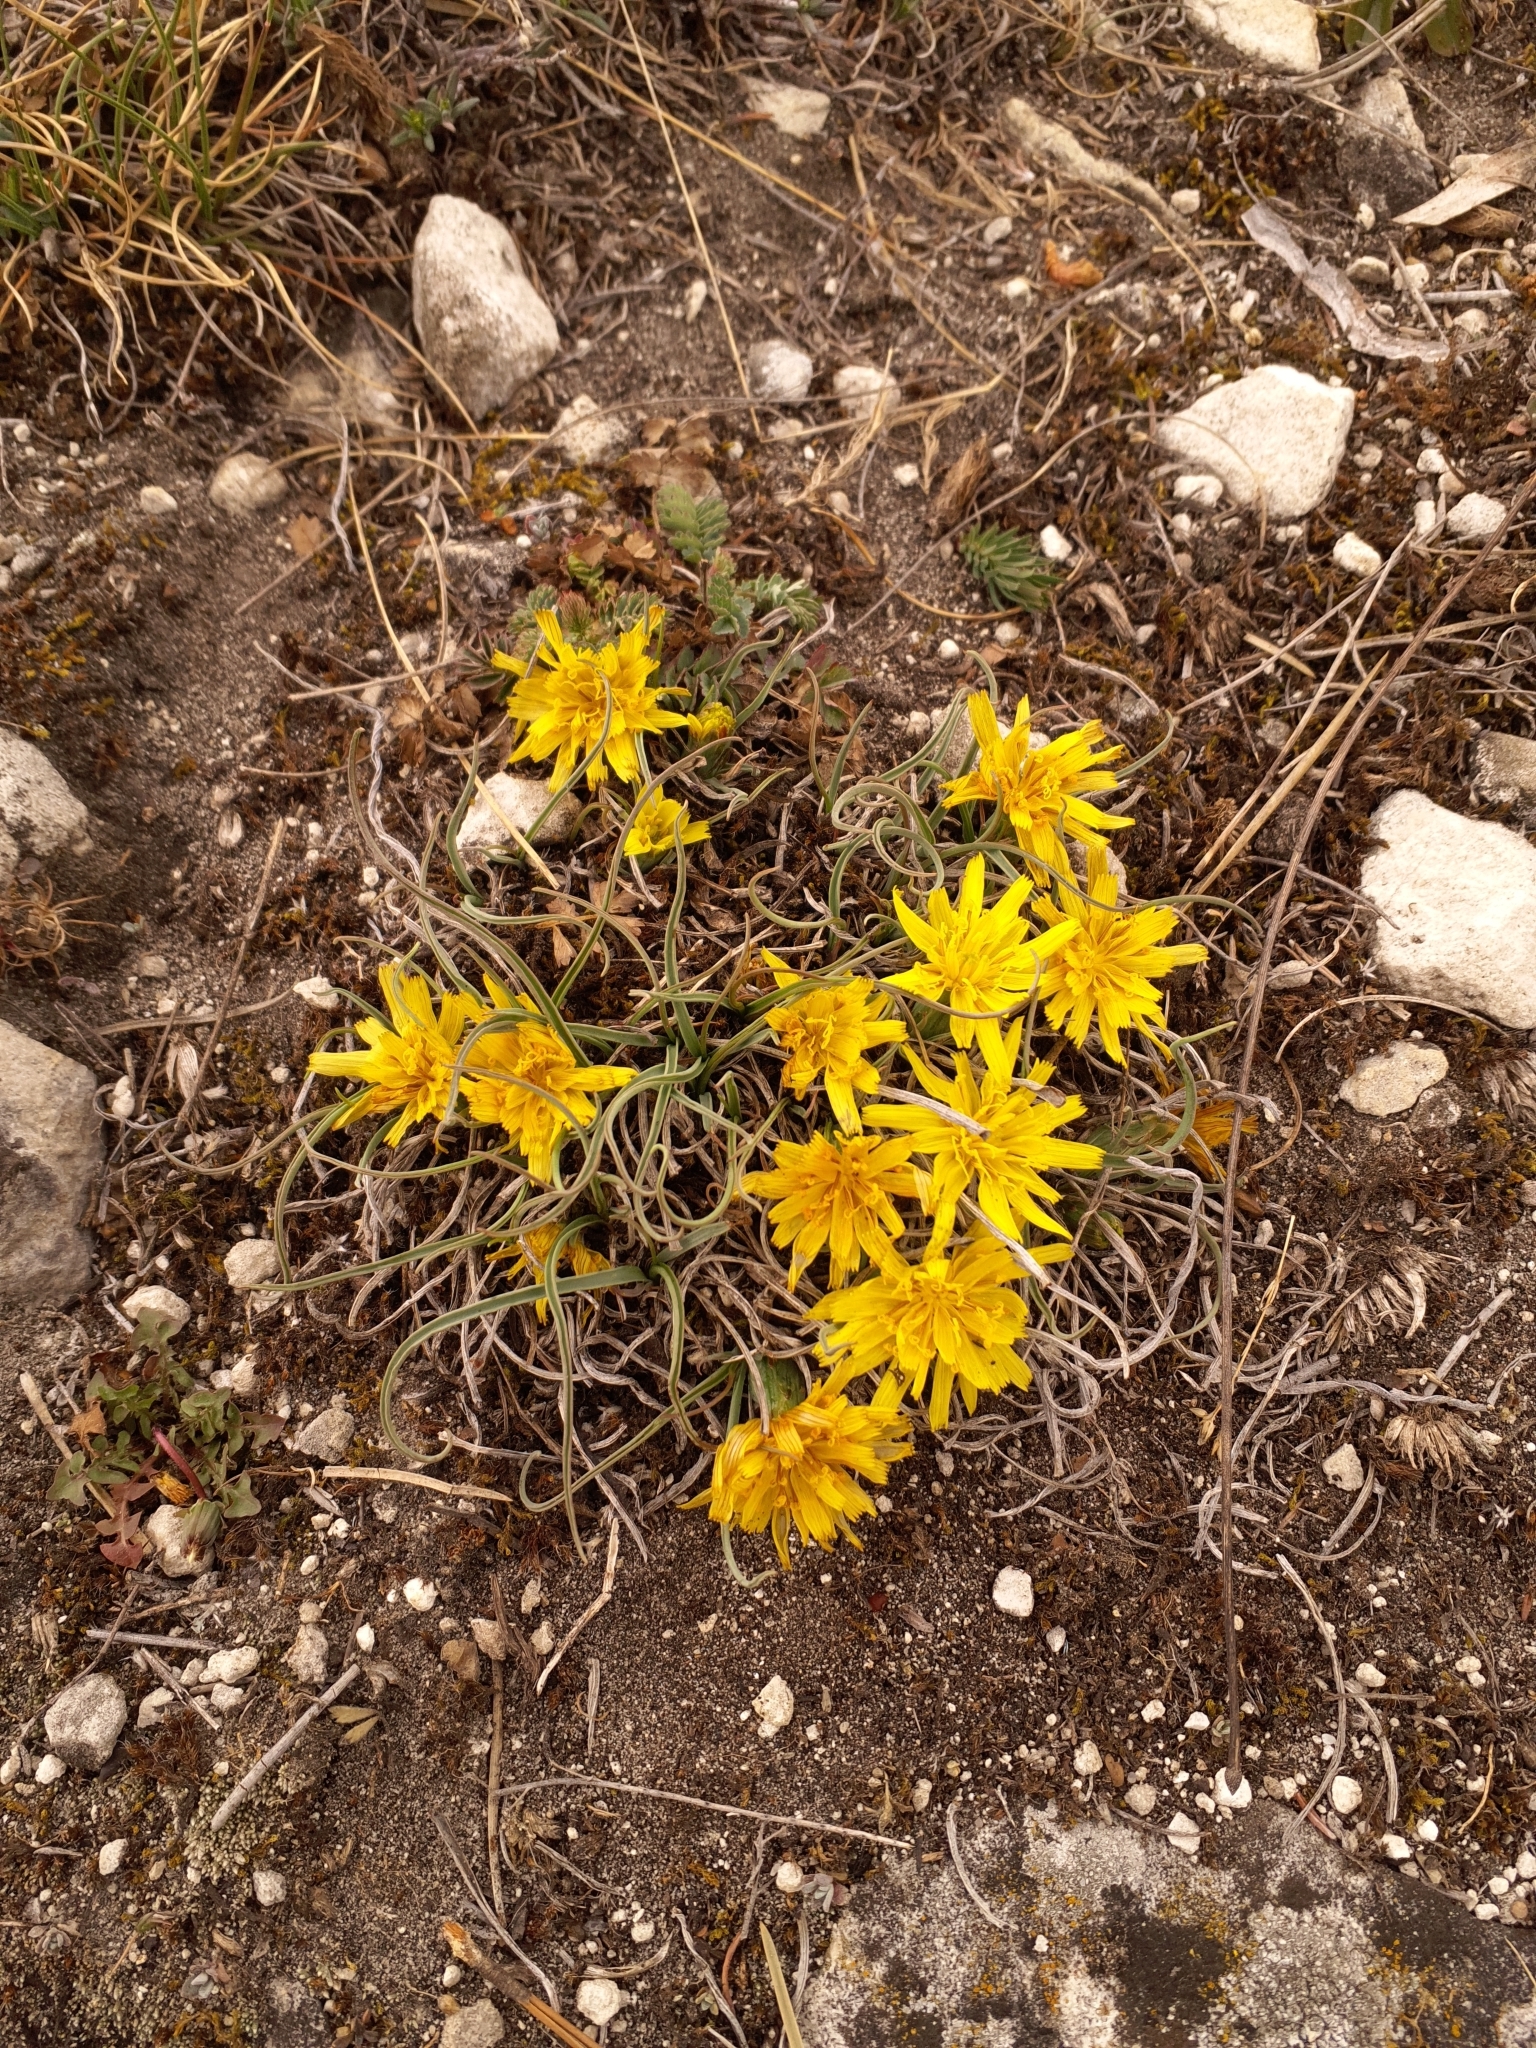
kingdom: Plantae
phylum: Tracheophyta
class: Magnoliopsida
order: Asterales
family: Asteraceae
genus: Takhtajaniantha
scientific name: Takhtajaniantha austriaca
